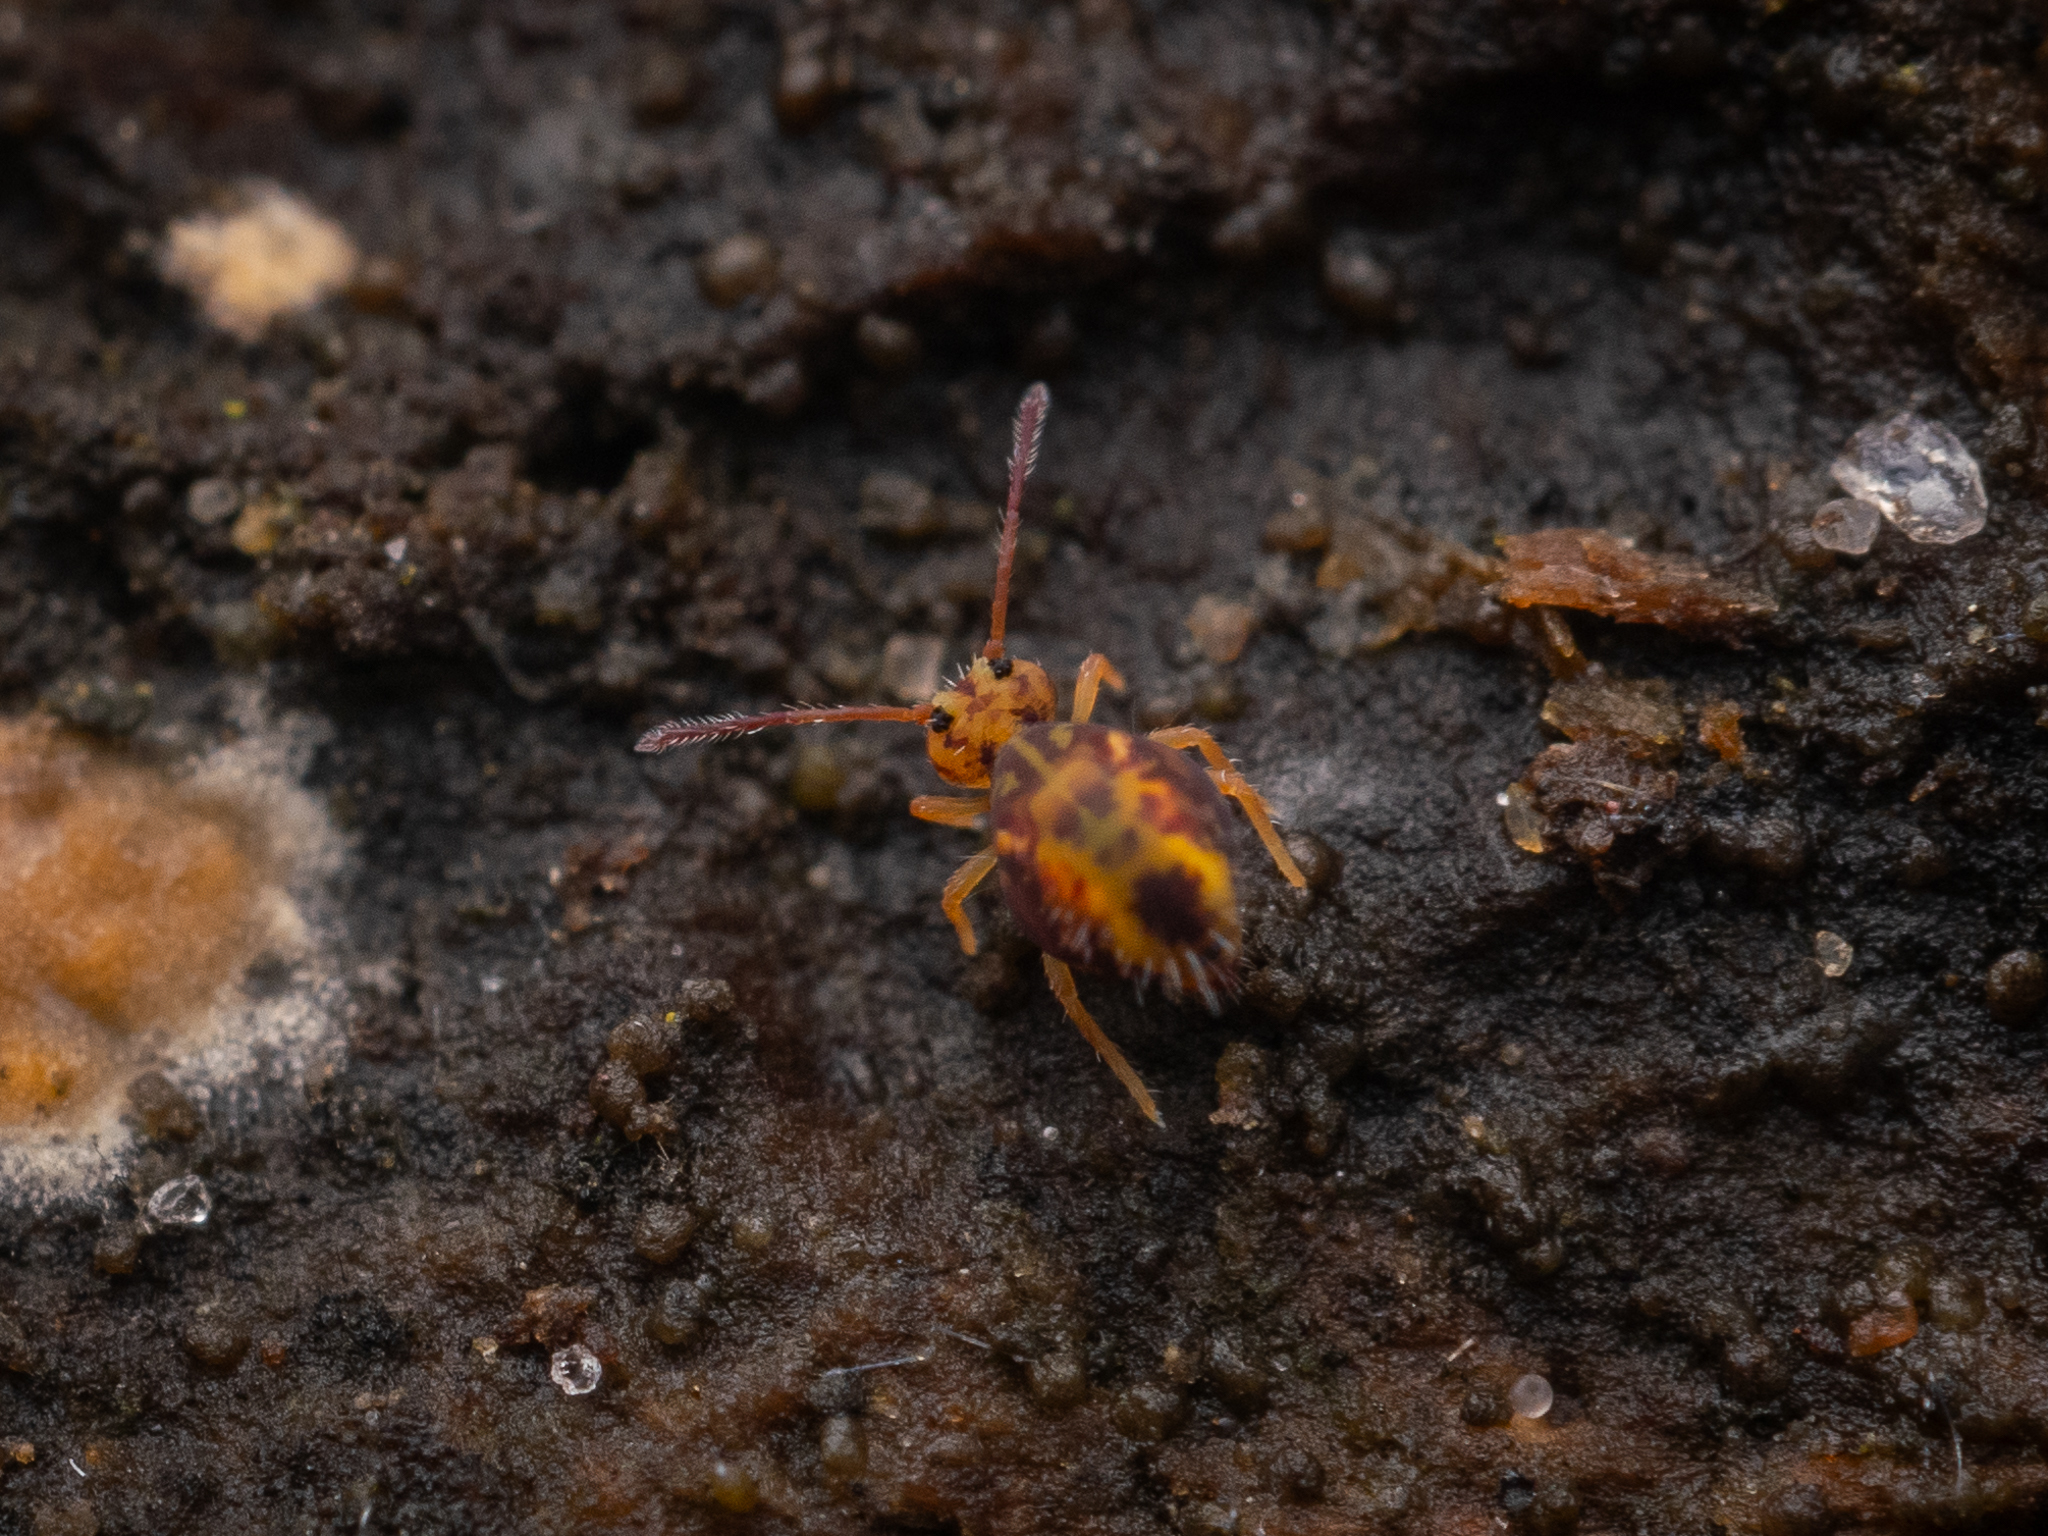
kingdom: Animalia
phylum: Arthropoda
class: Collembola
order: Symphypleona
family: Dicyrtomidae
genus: Dicyrtomina
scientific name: Dicyrtomina ornata
